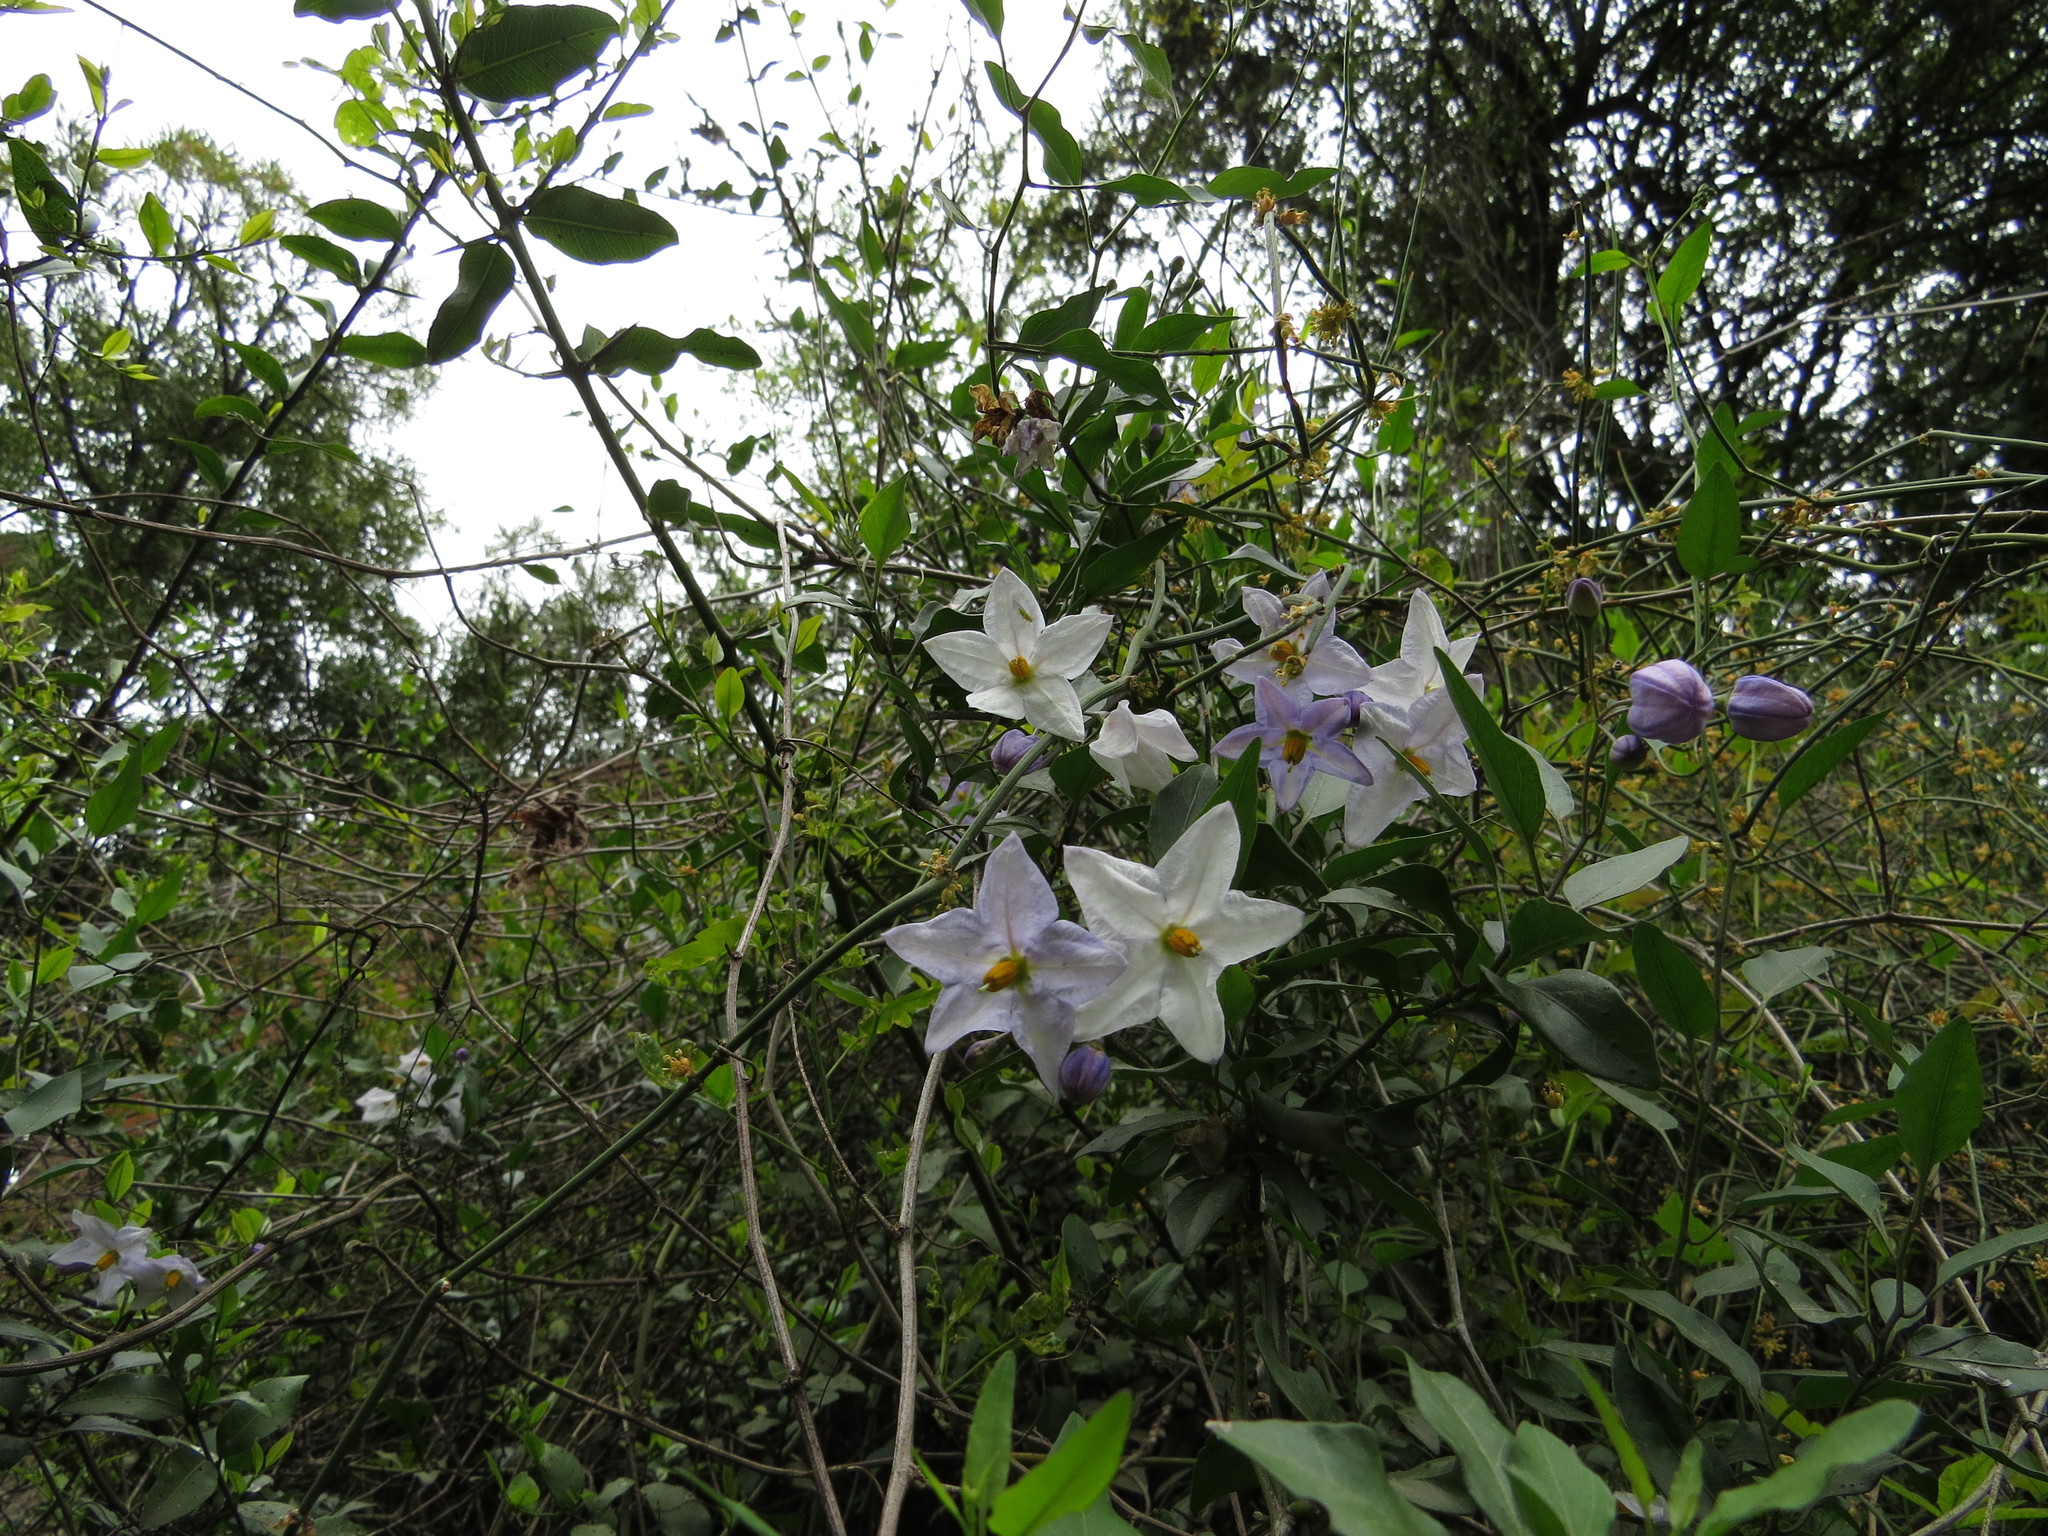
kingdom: Plantae
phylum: Tracheophyta
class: Magnoliopsida
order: Solanales
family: Solanaceae
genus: Solanum
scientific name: Solanum laxum
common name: Nightshade
